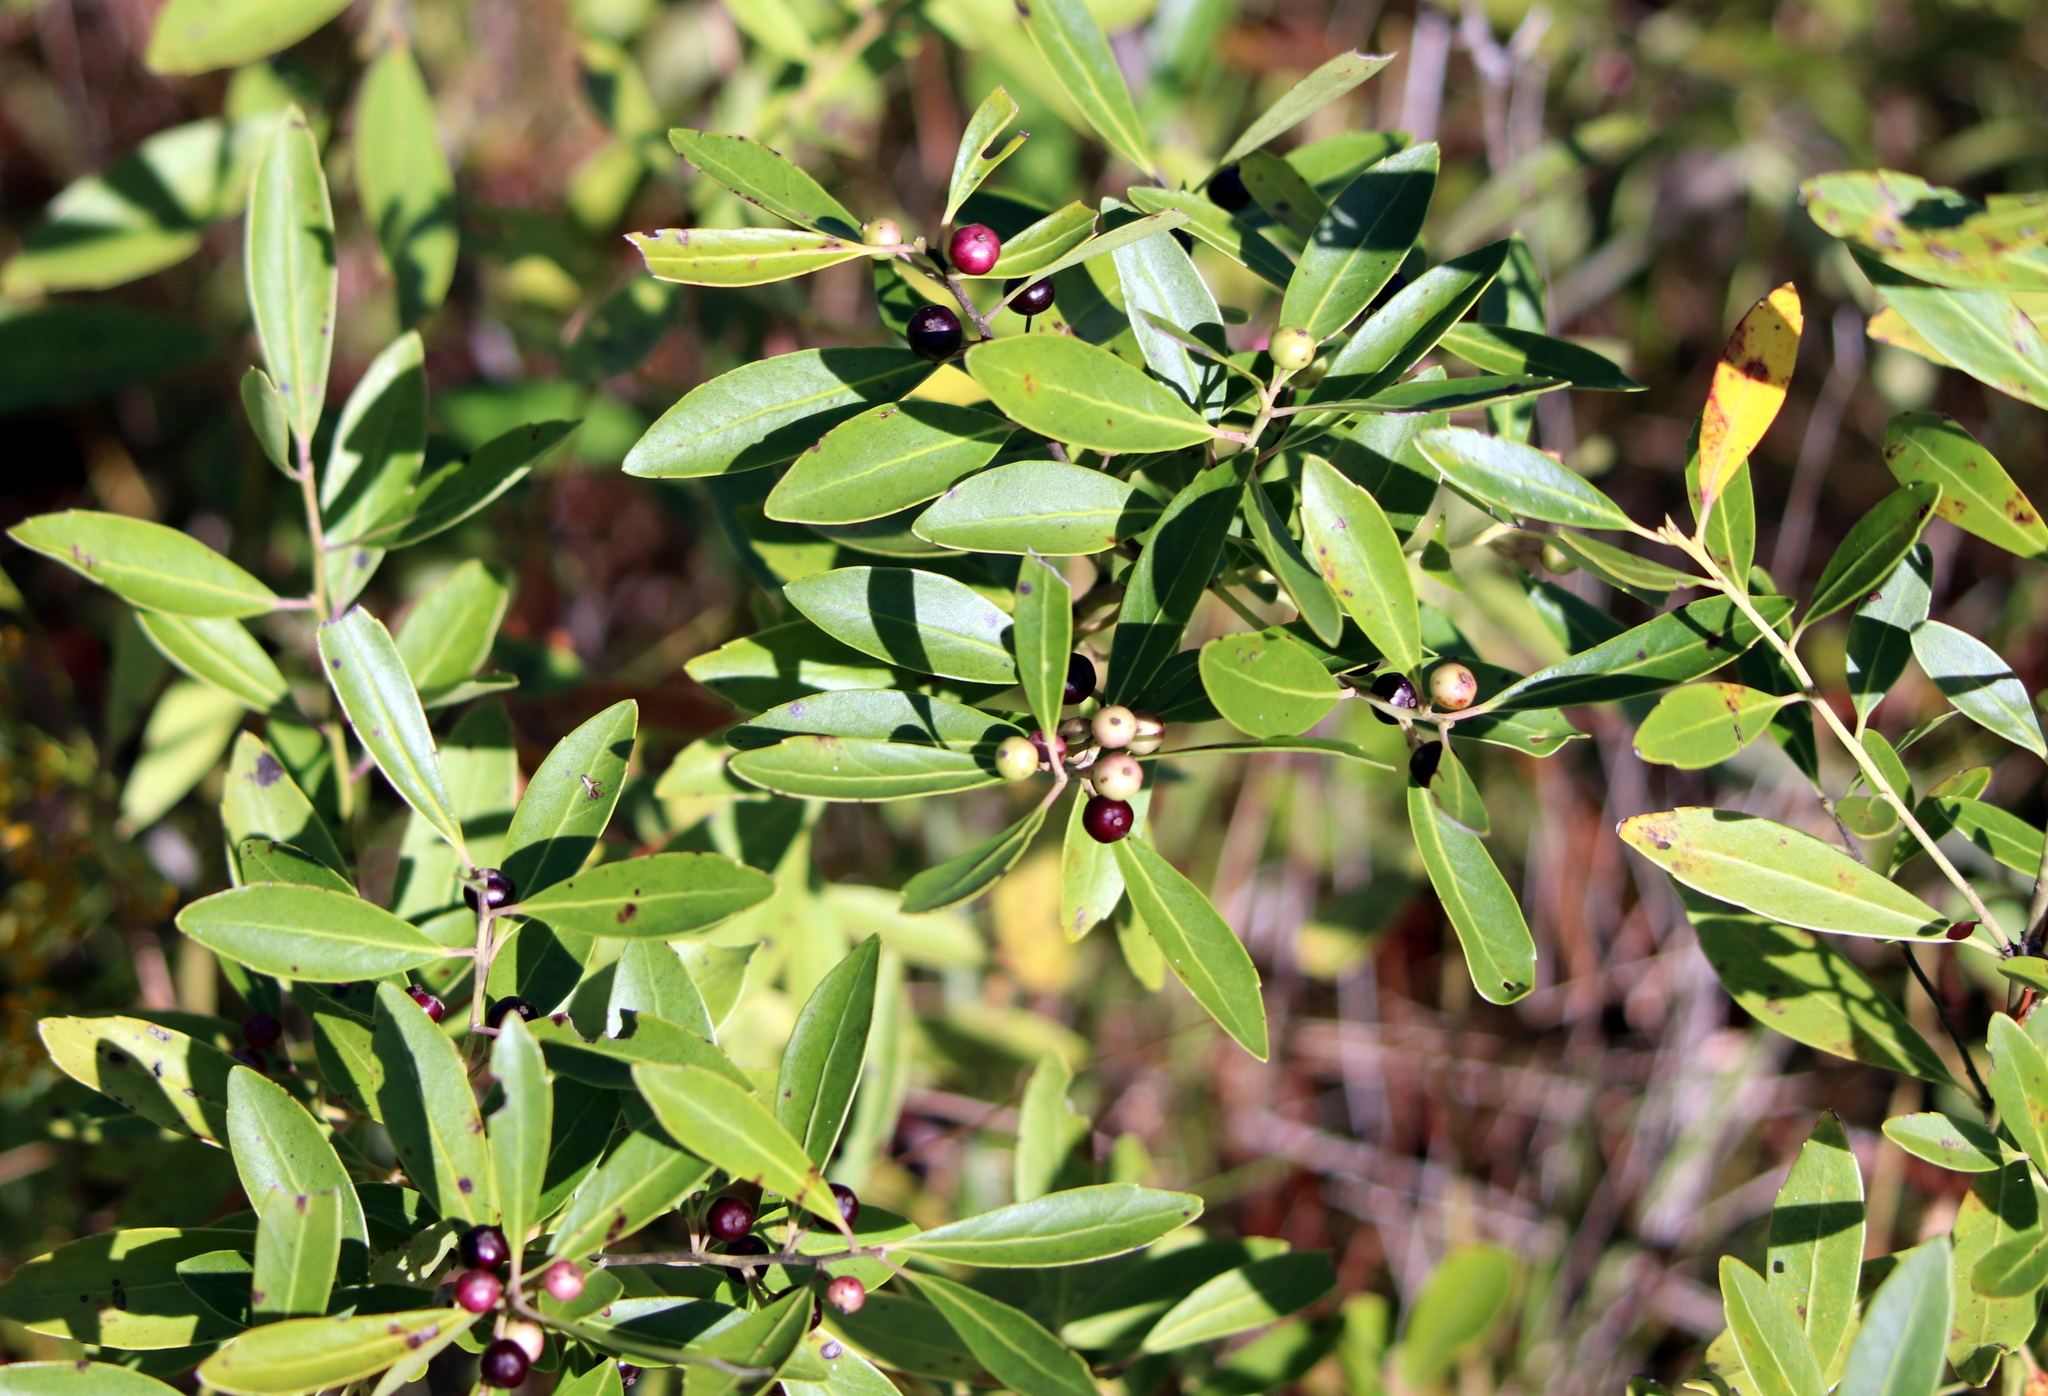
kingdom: Plantae
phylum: Tracheophyta
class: Magnoliopsida
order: Aquifoliales
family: Aquifoliaceae
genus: Ilex
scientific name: Ilex glabra
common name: Bitter gallberry
